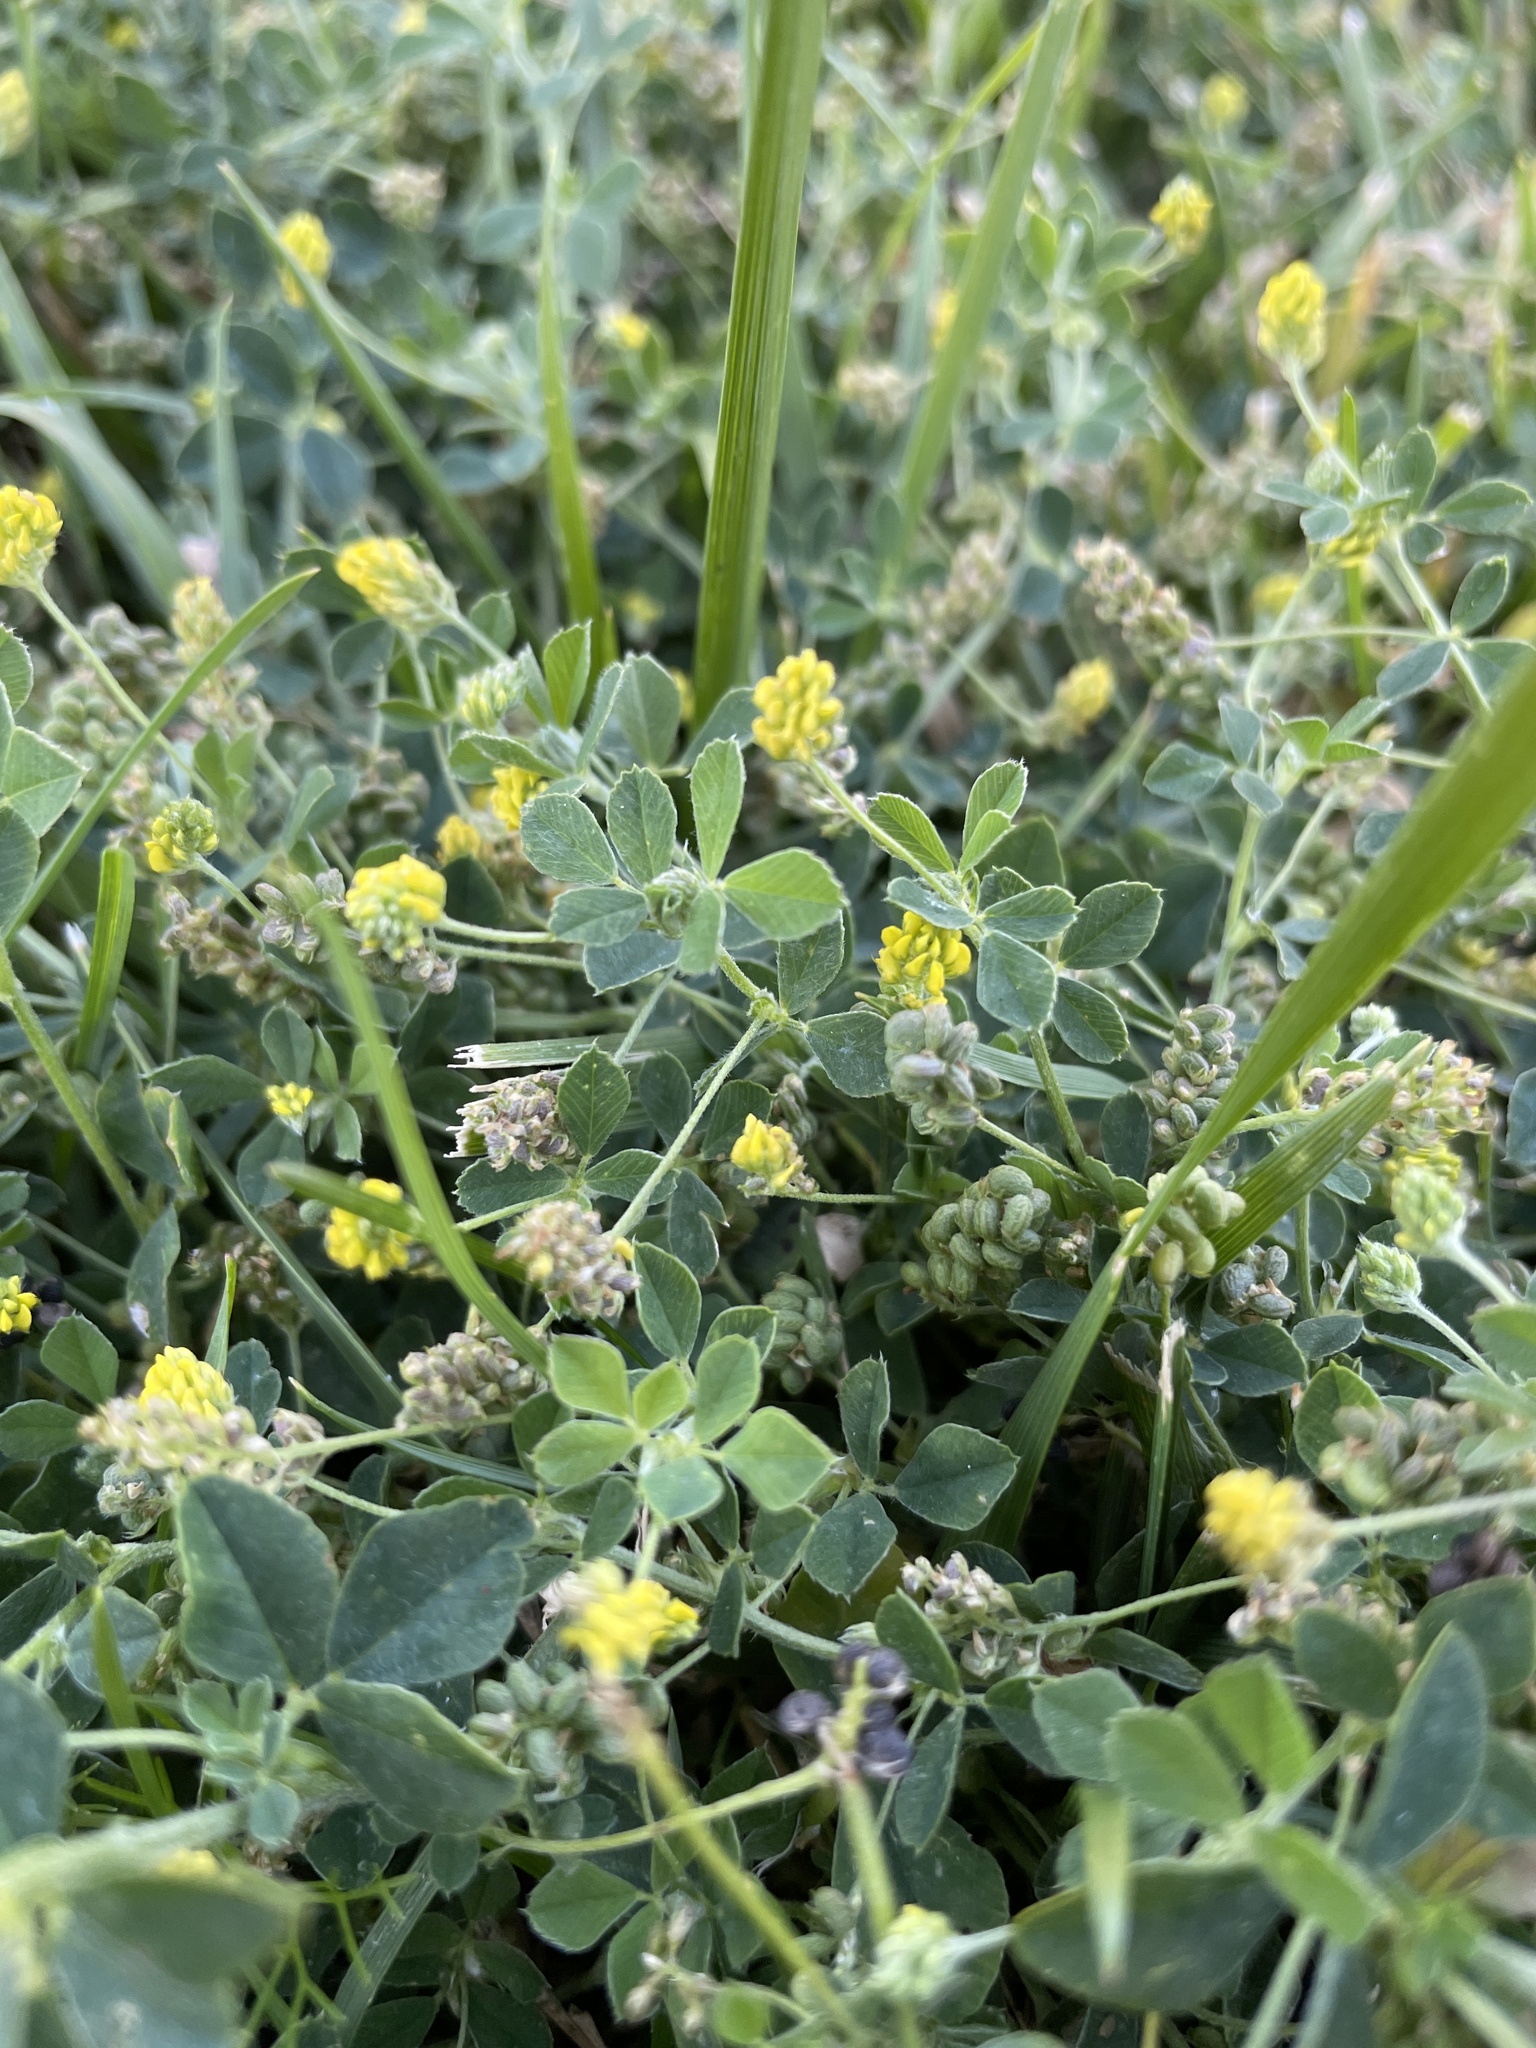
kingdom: Plantae
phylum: Tracheophyta
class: Magnoliopsida
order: Fabales
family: Fabaceae
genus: Medicago
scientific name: Medicago lupulina
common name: Black medick
